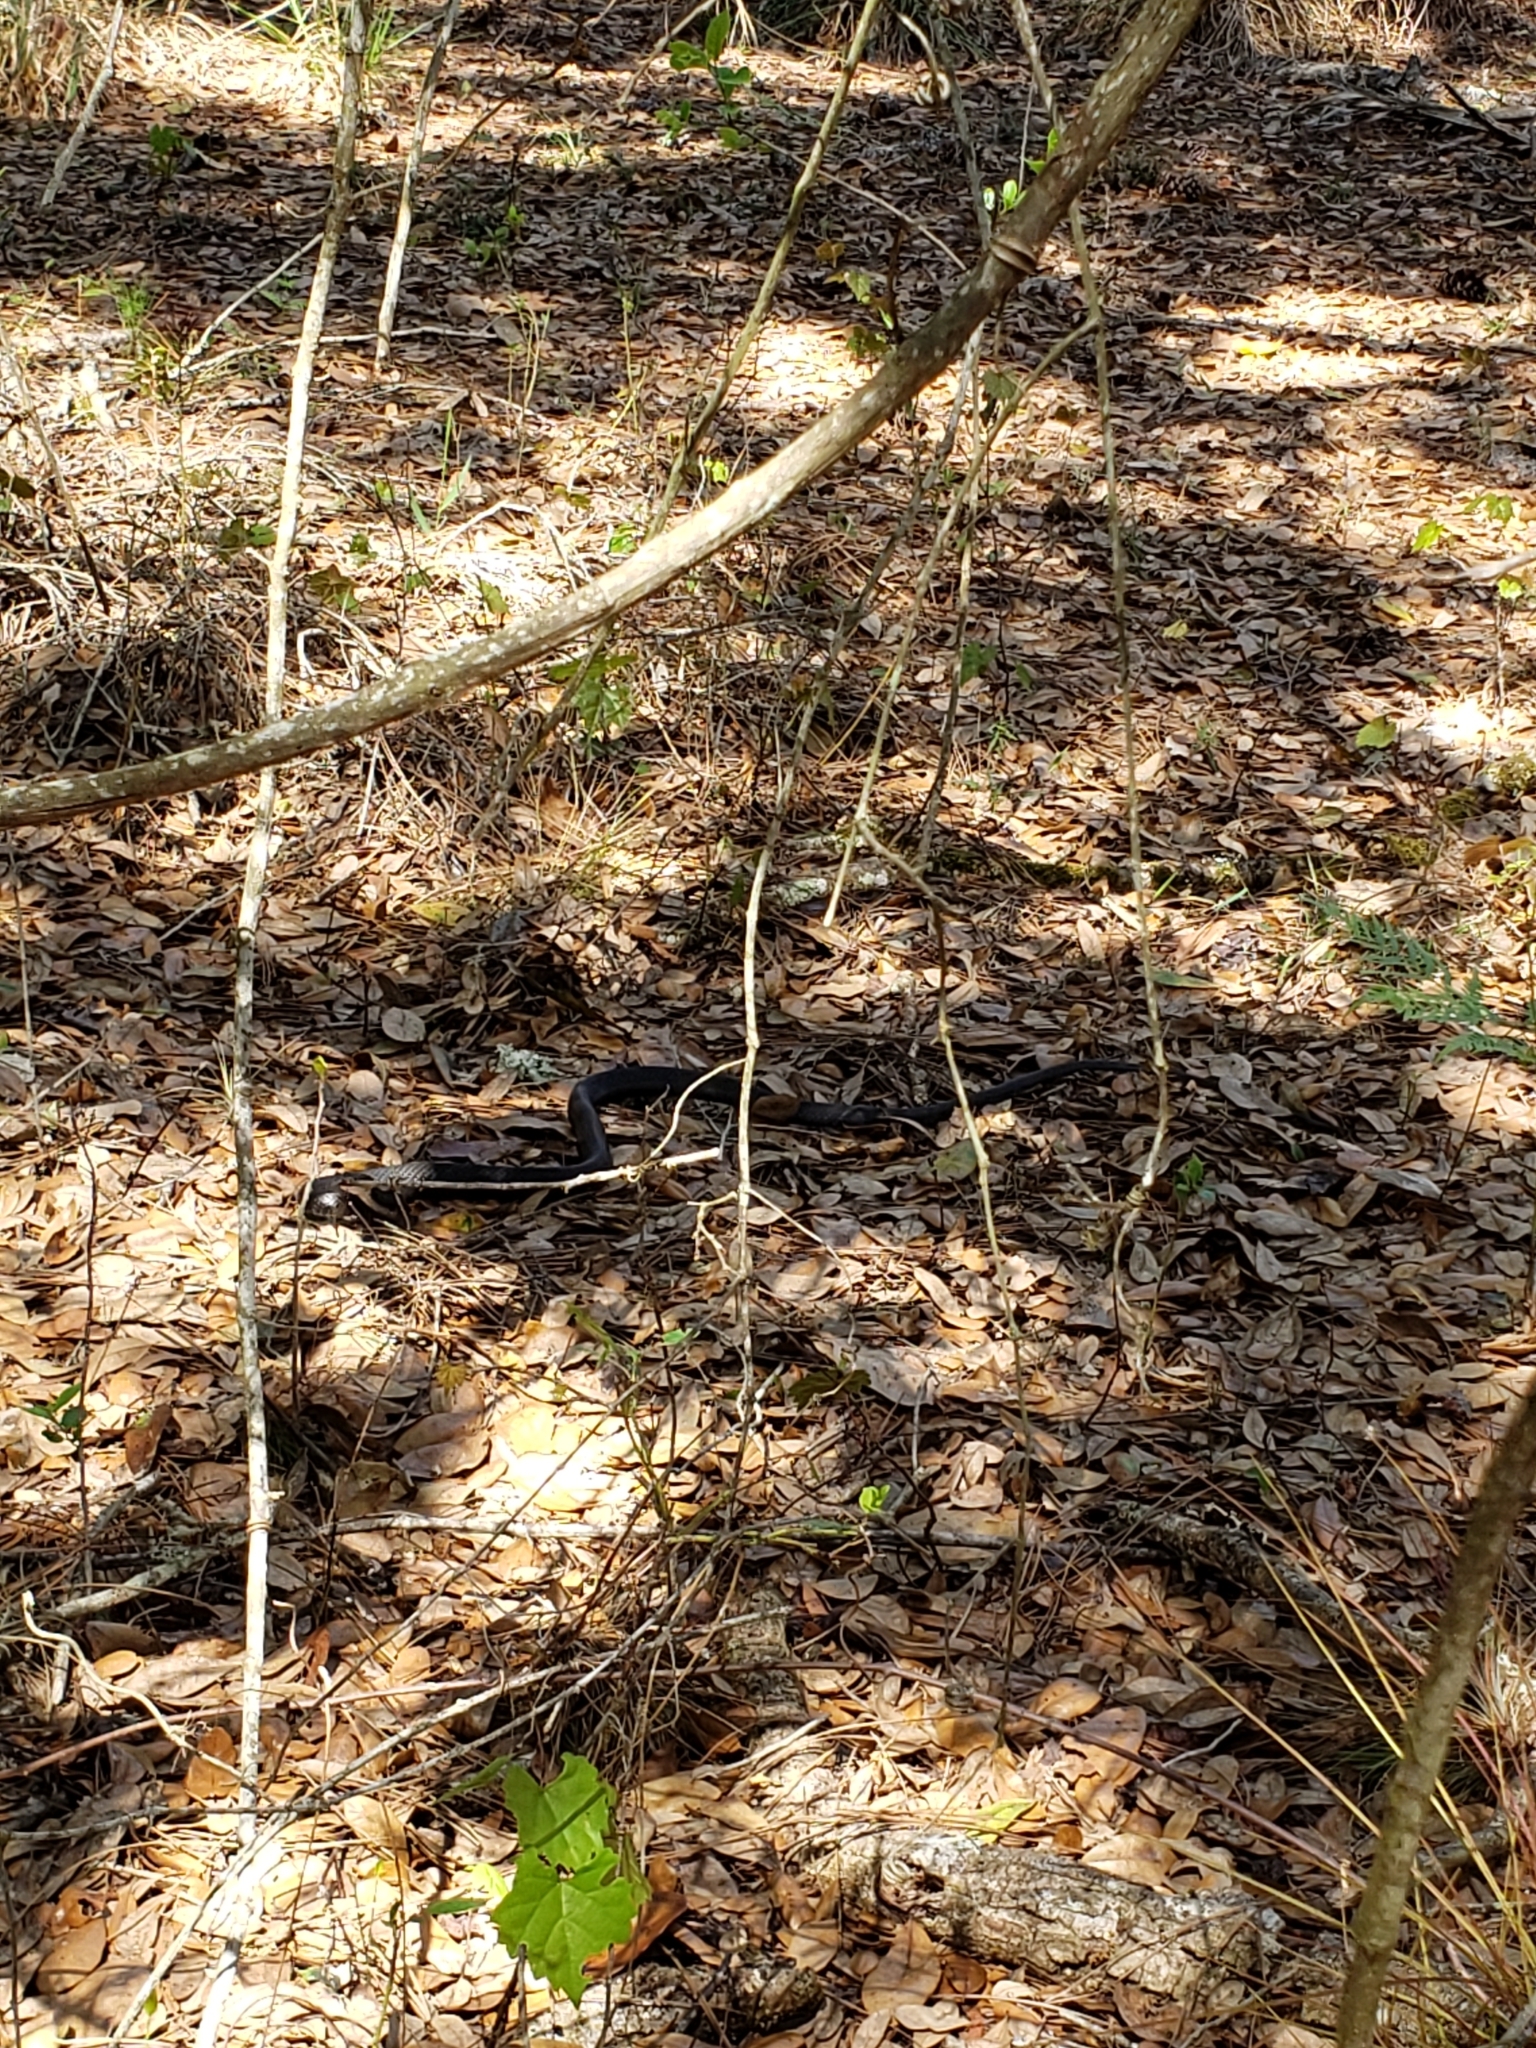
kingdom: Animalia
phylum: Chordata
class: Squamata
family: Colubridae
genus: Coluber
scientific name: Coluber constrictor
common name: Eastern racer
